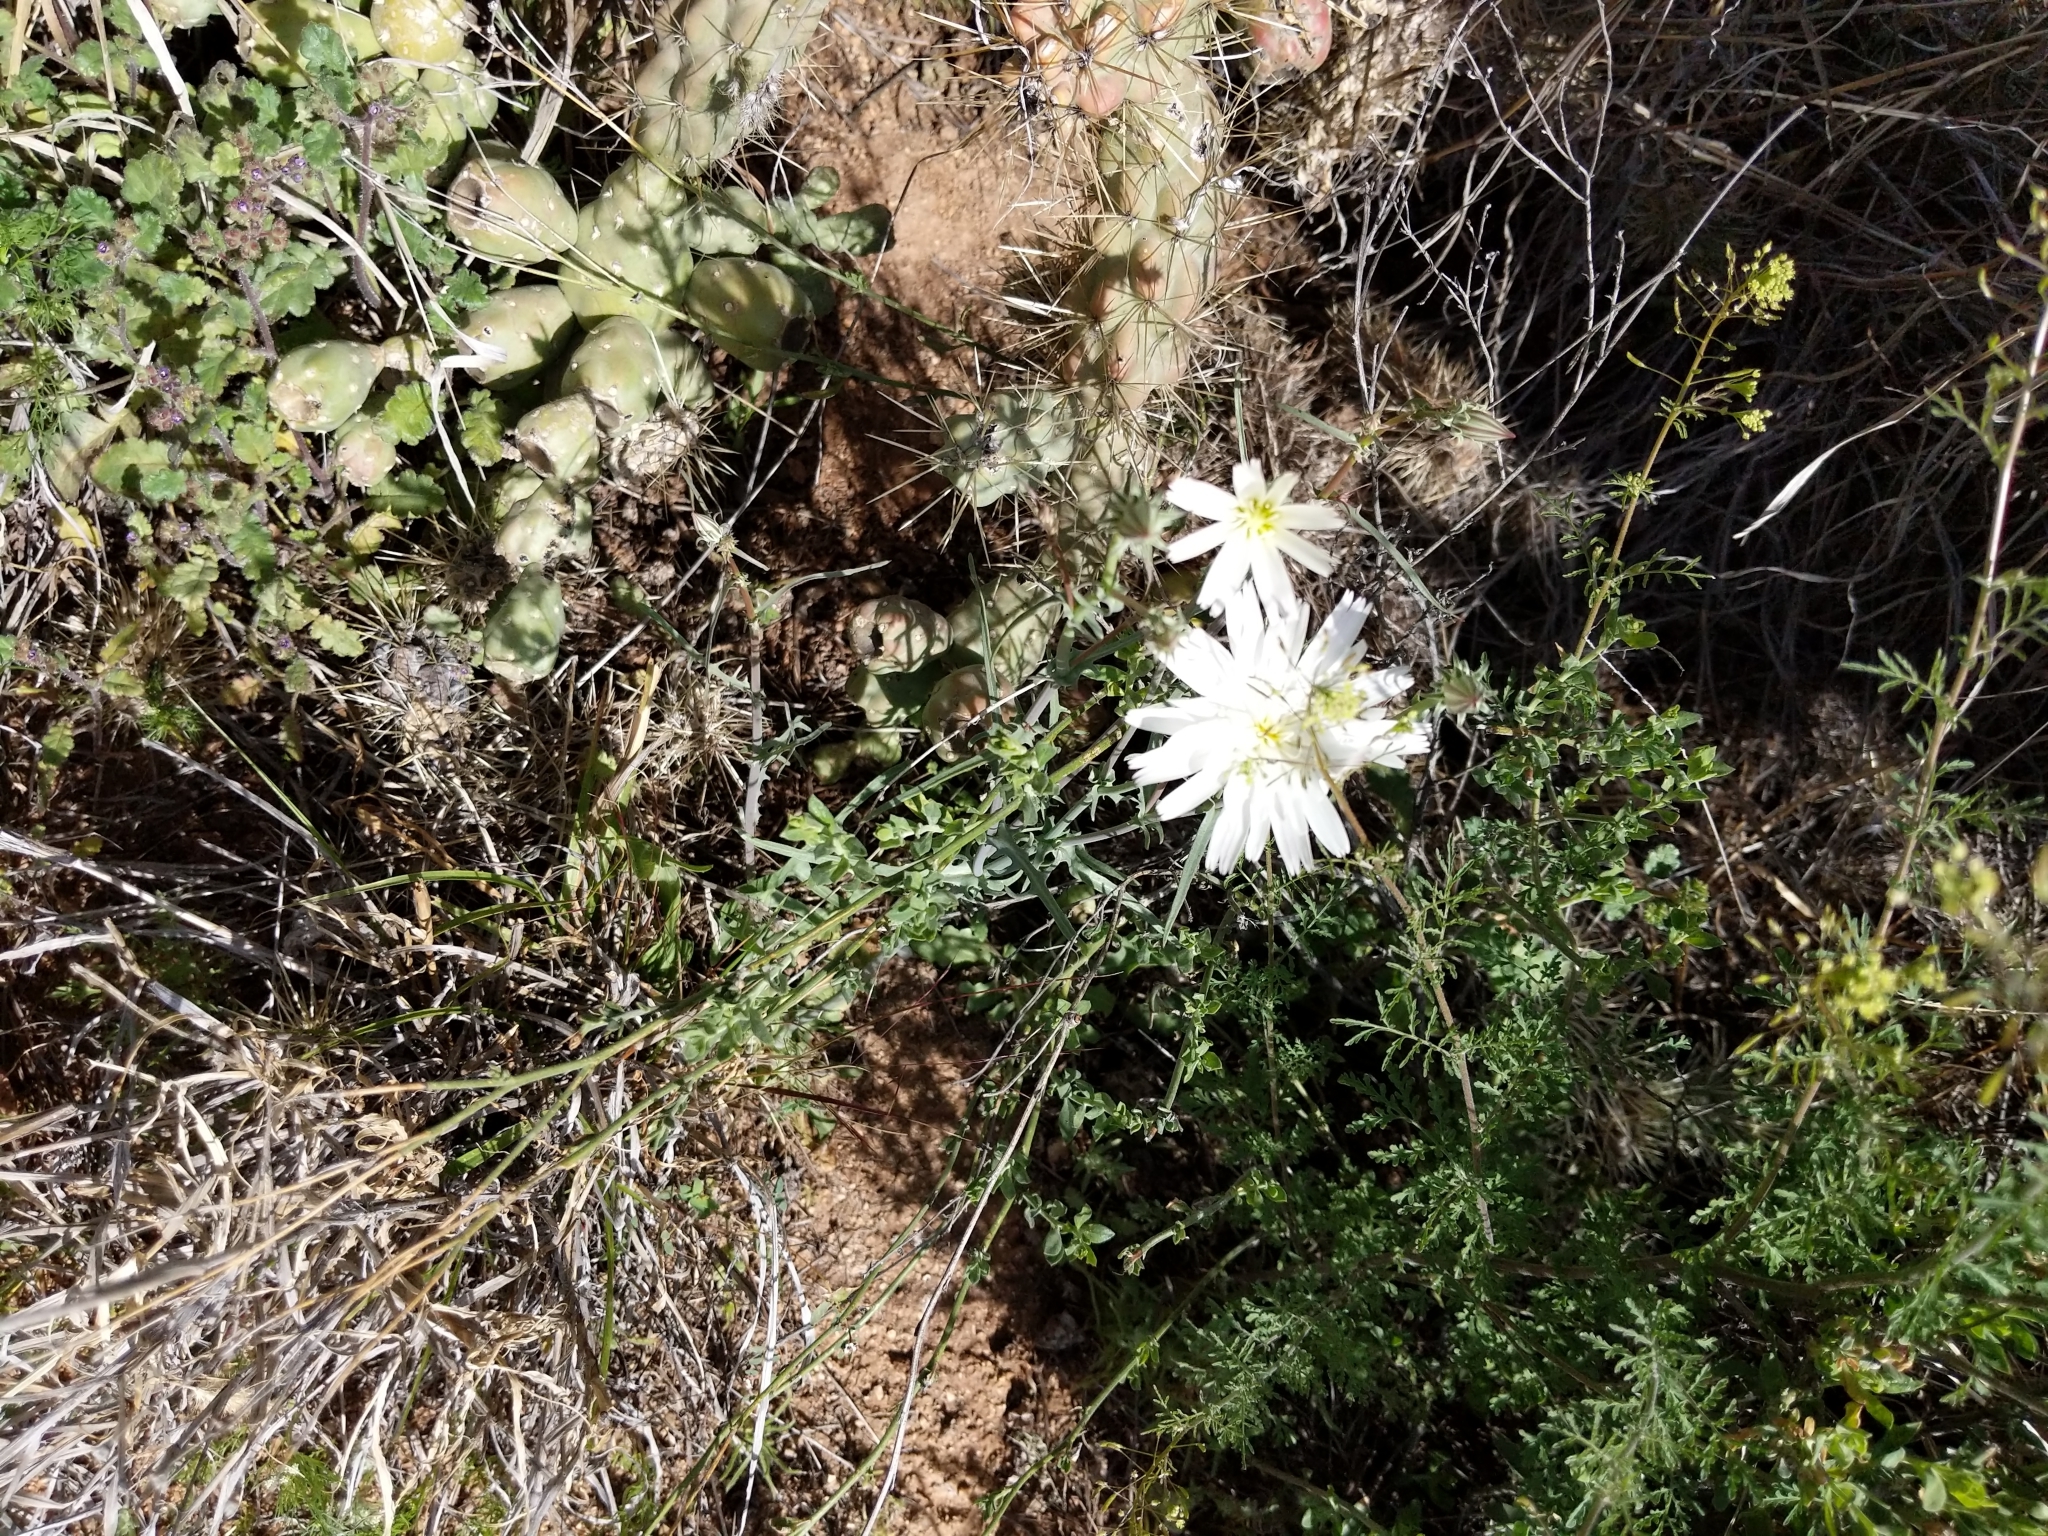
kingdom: Plantae
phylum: Tracheophyta
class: Magnoliopsida
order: Asterales
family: Asteraceae
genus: Rafinesquia
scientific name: Rafinesquia neomexicana
